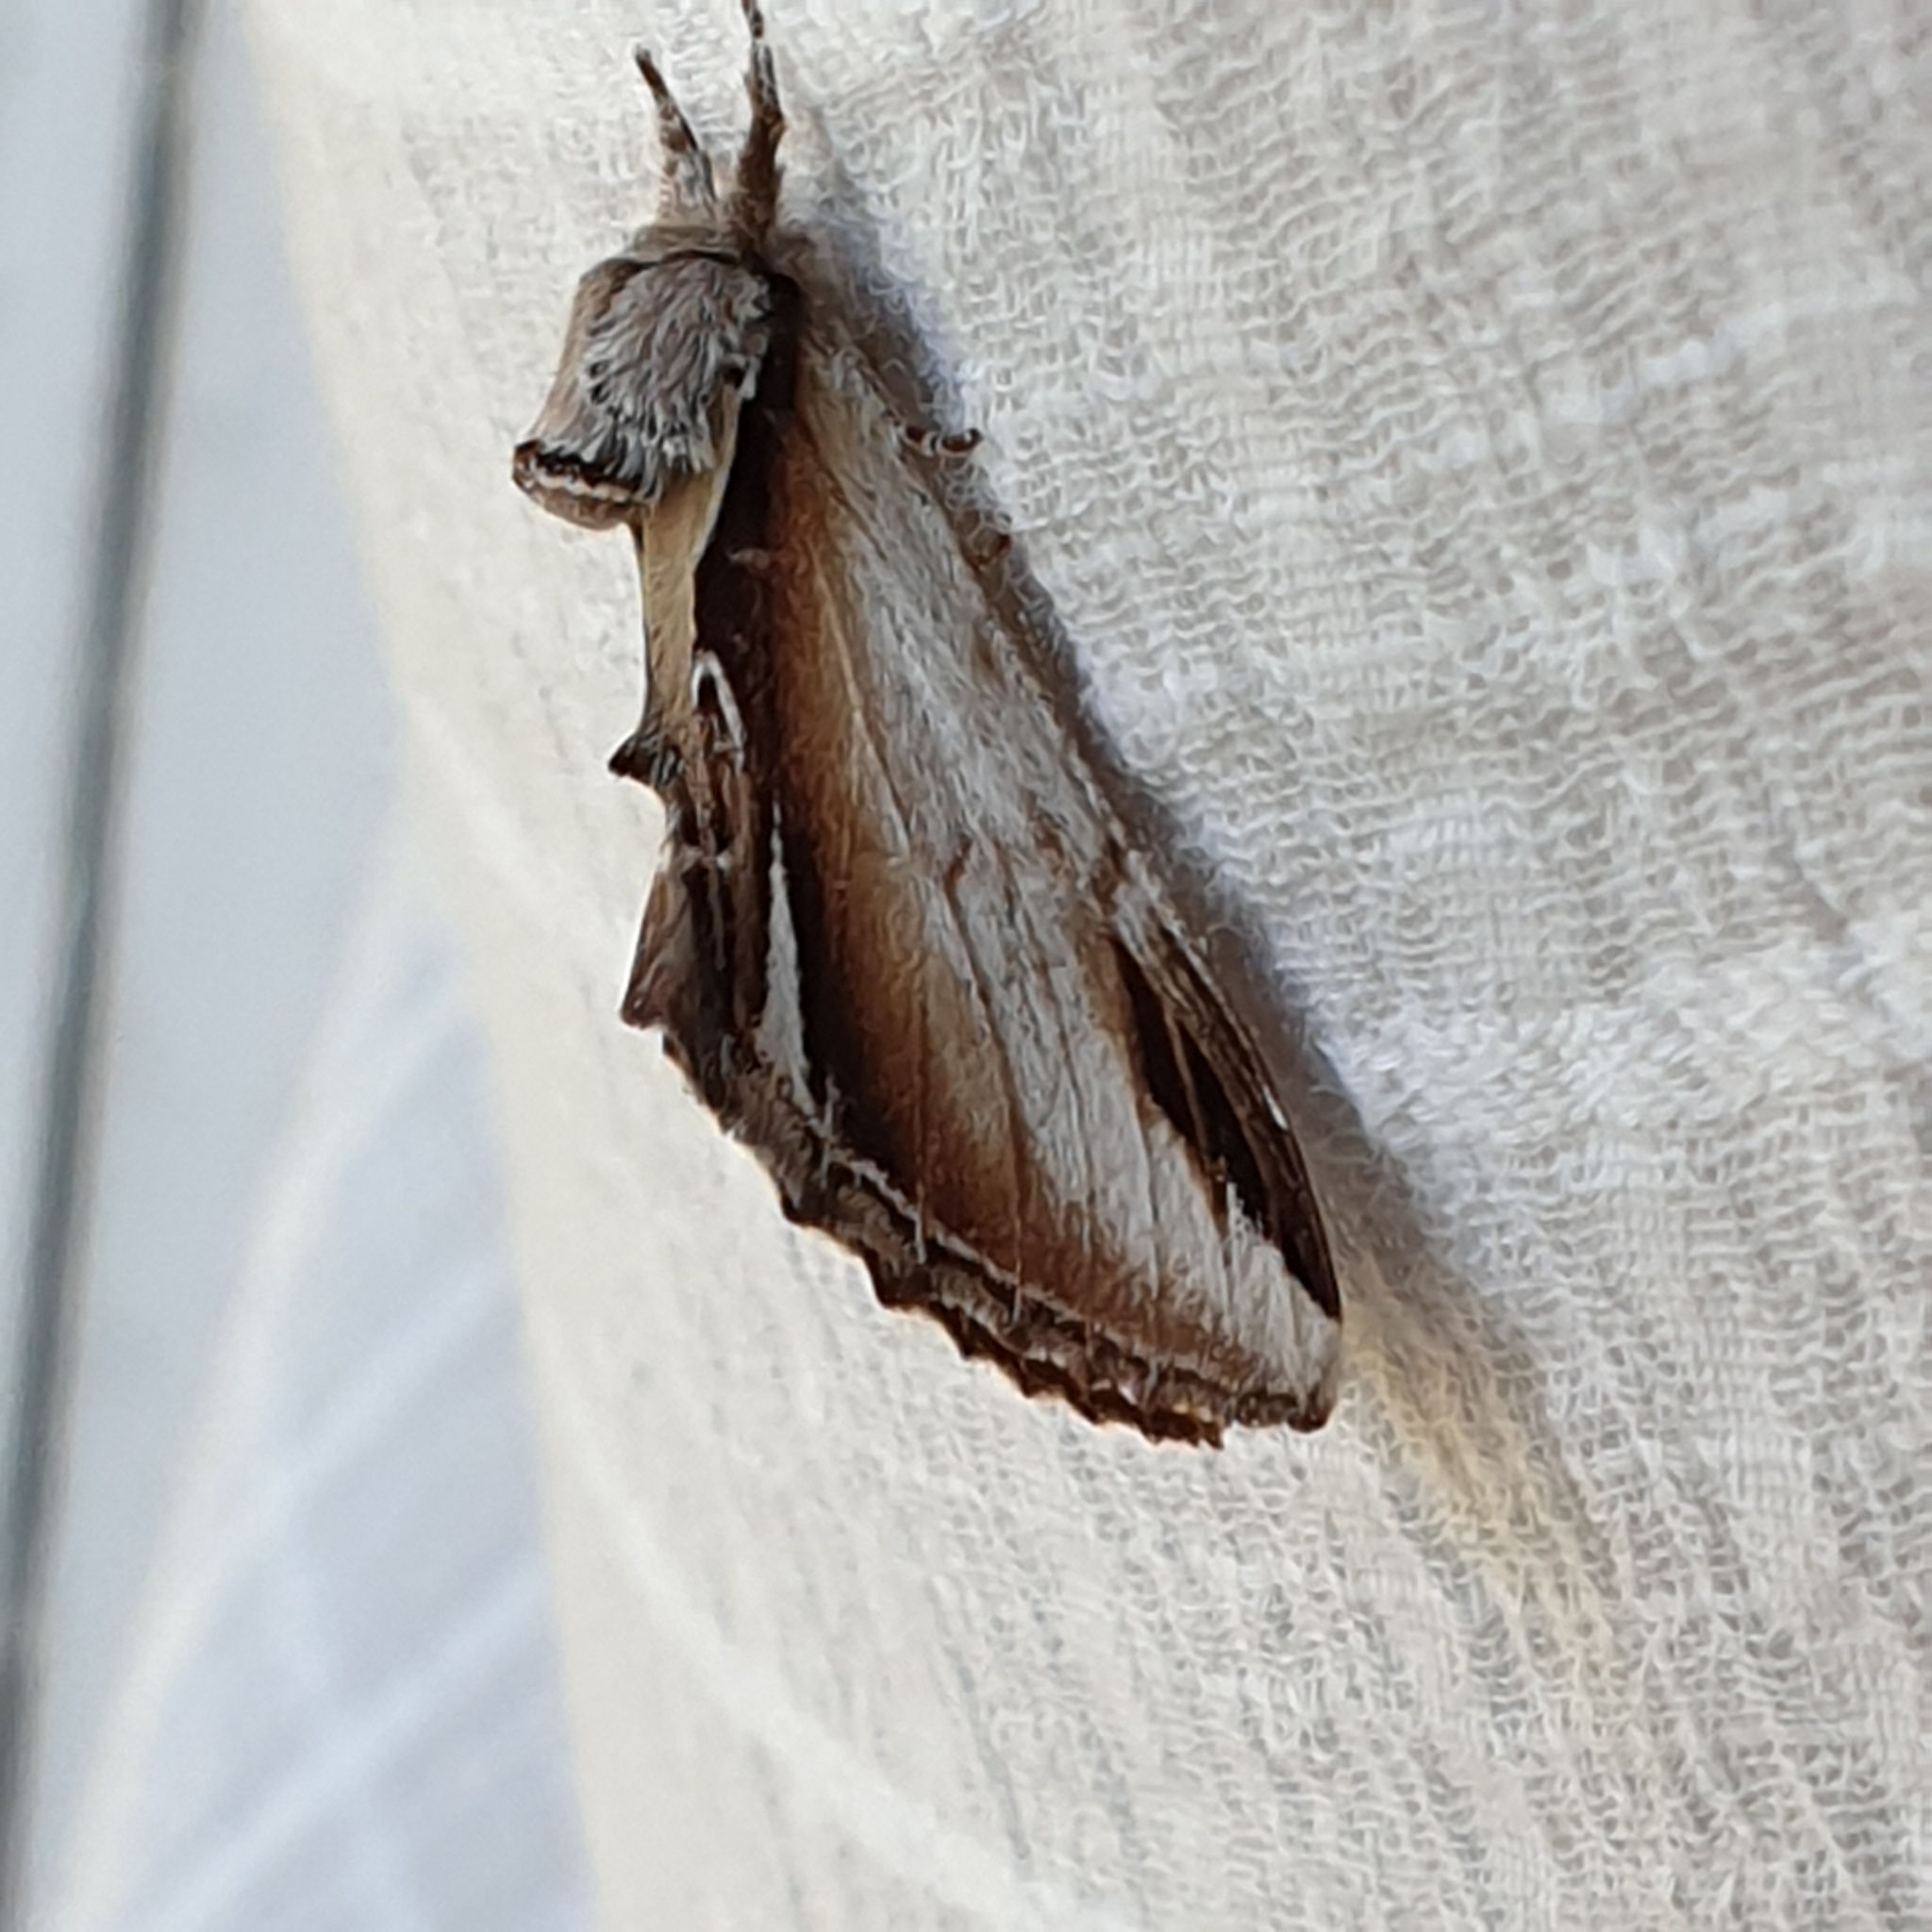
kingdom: Animalia
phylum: Arthropoda
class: Insecta
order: Lepidoptera
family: Notodontidae
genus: Pheosia
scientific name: Pheosia gnoma
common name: Lesser swallow prominent
